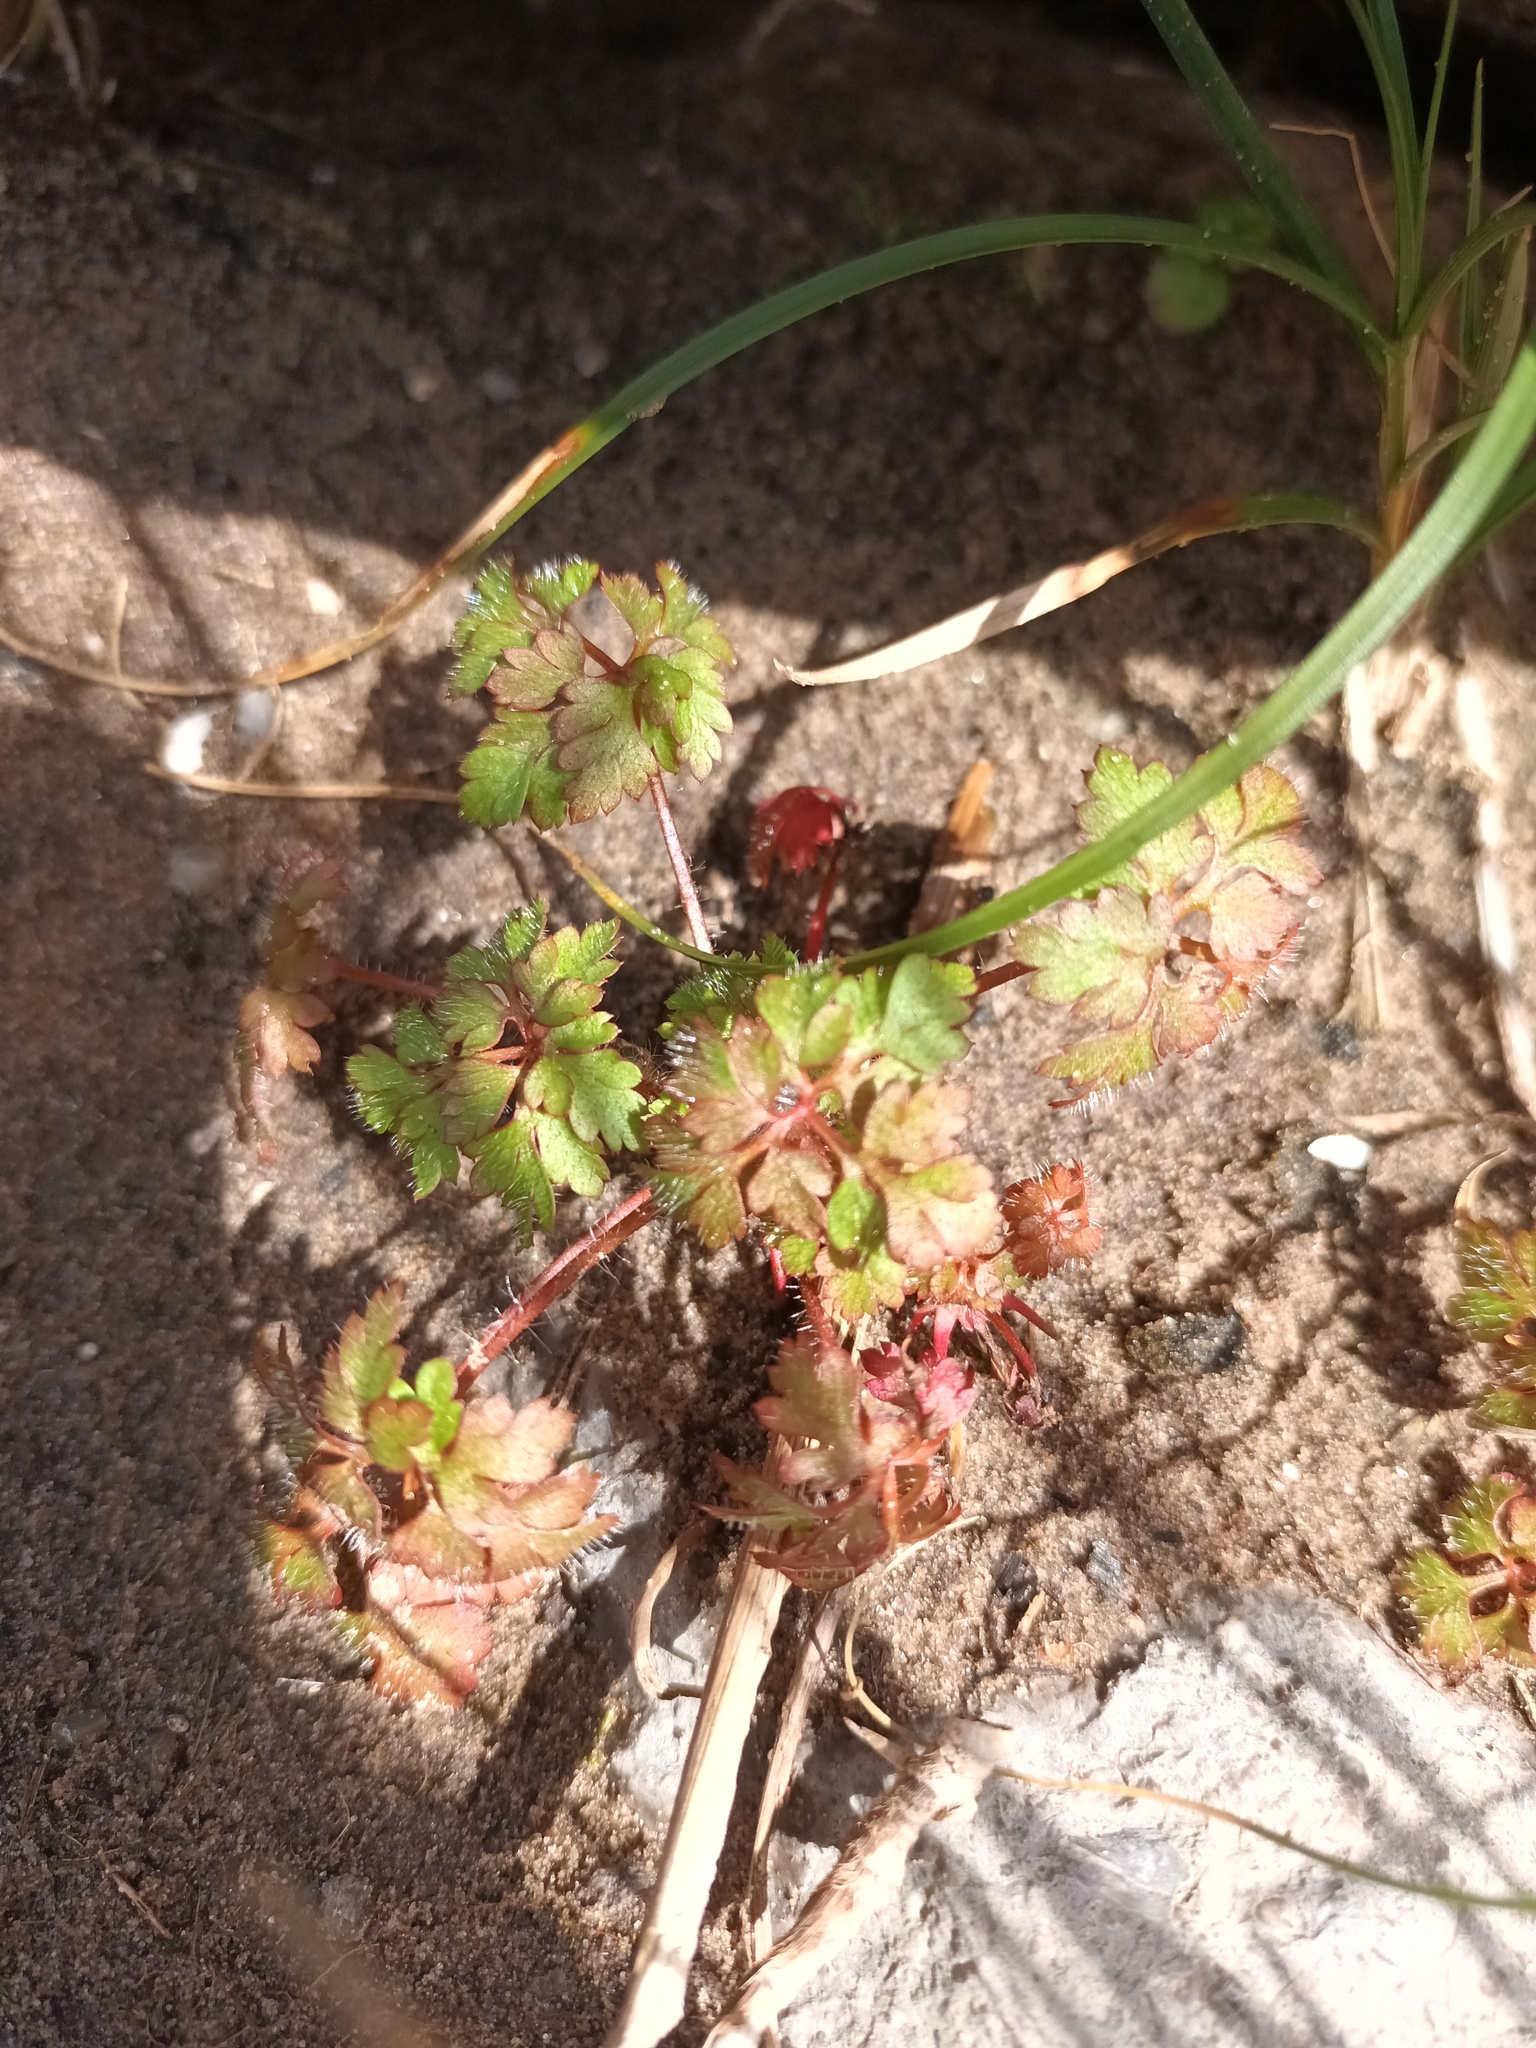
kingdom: Plantae
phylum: Tracheophyta
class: Magnoliopsida
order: Geraniales
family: Geraniaceae
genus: Geranium
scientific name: Geranium robertianum
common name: Herb-robert
